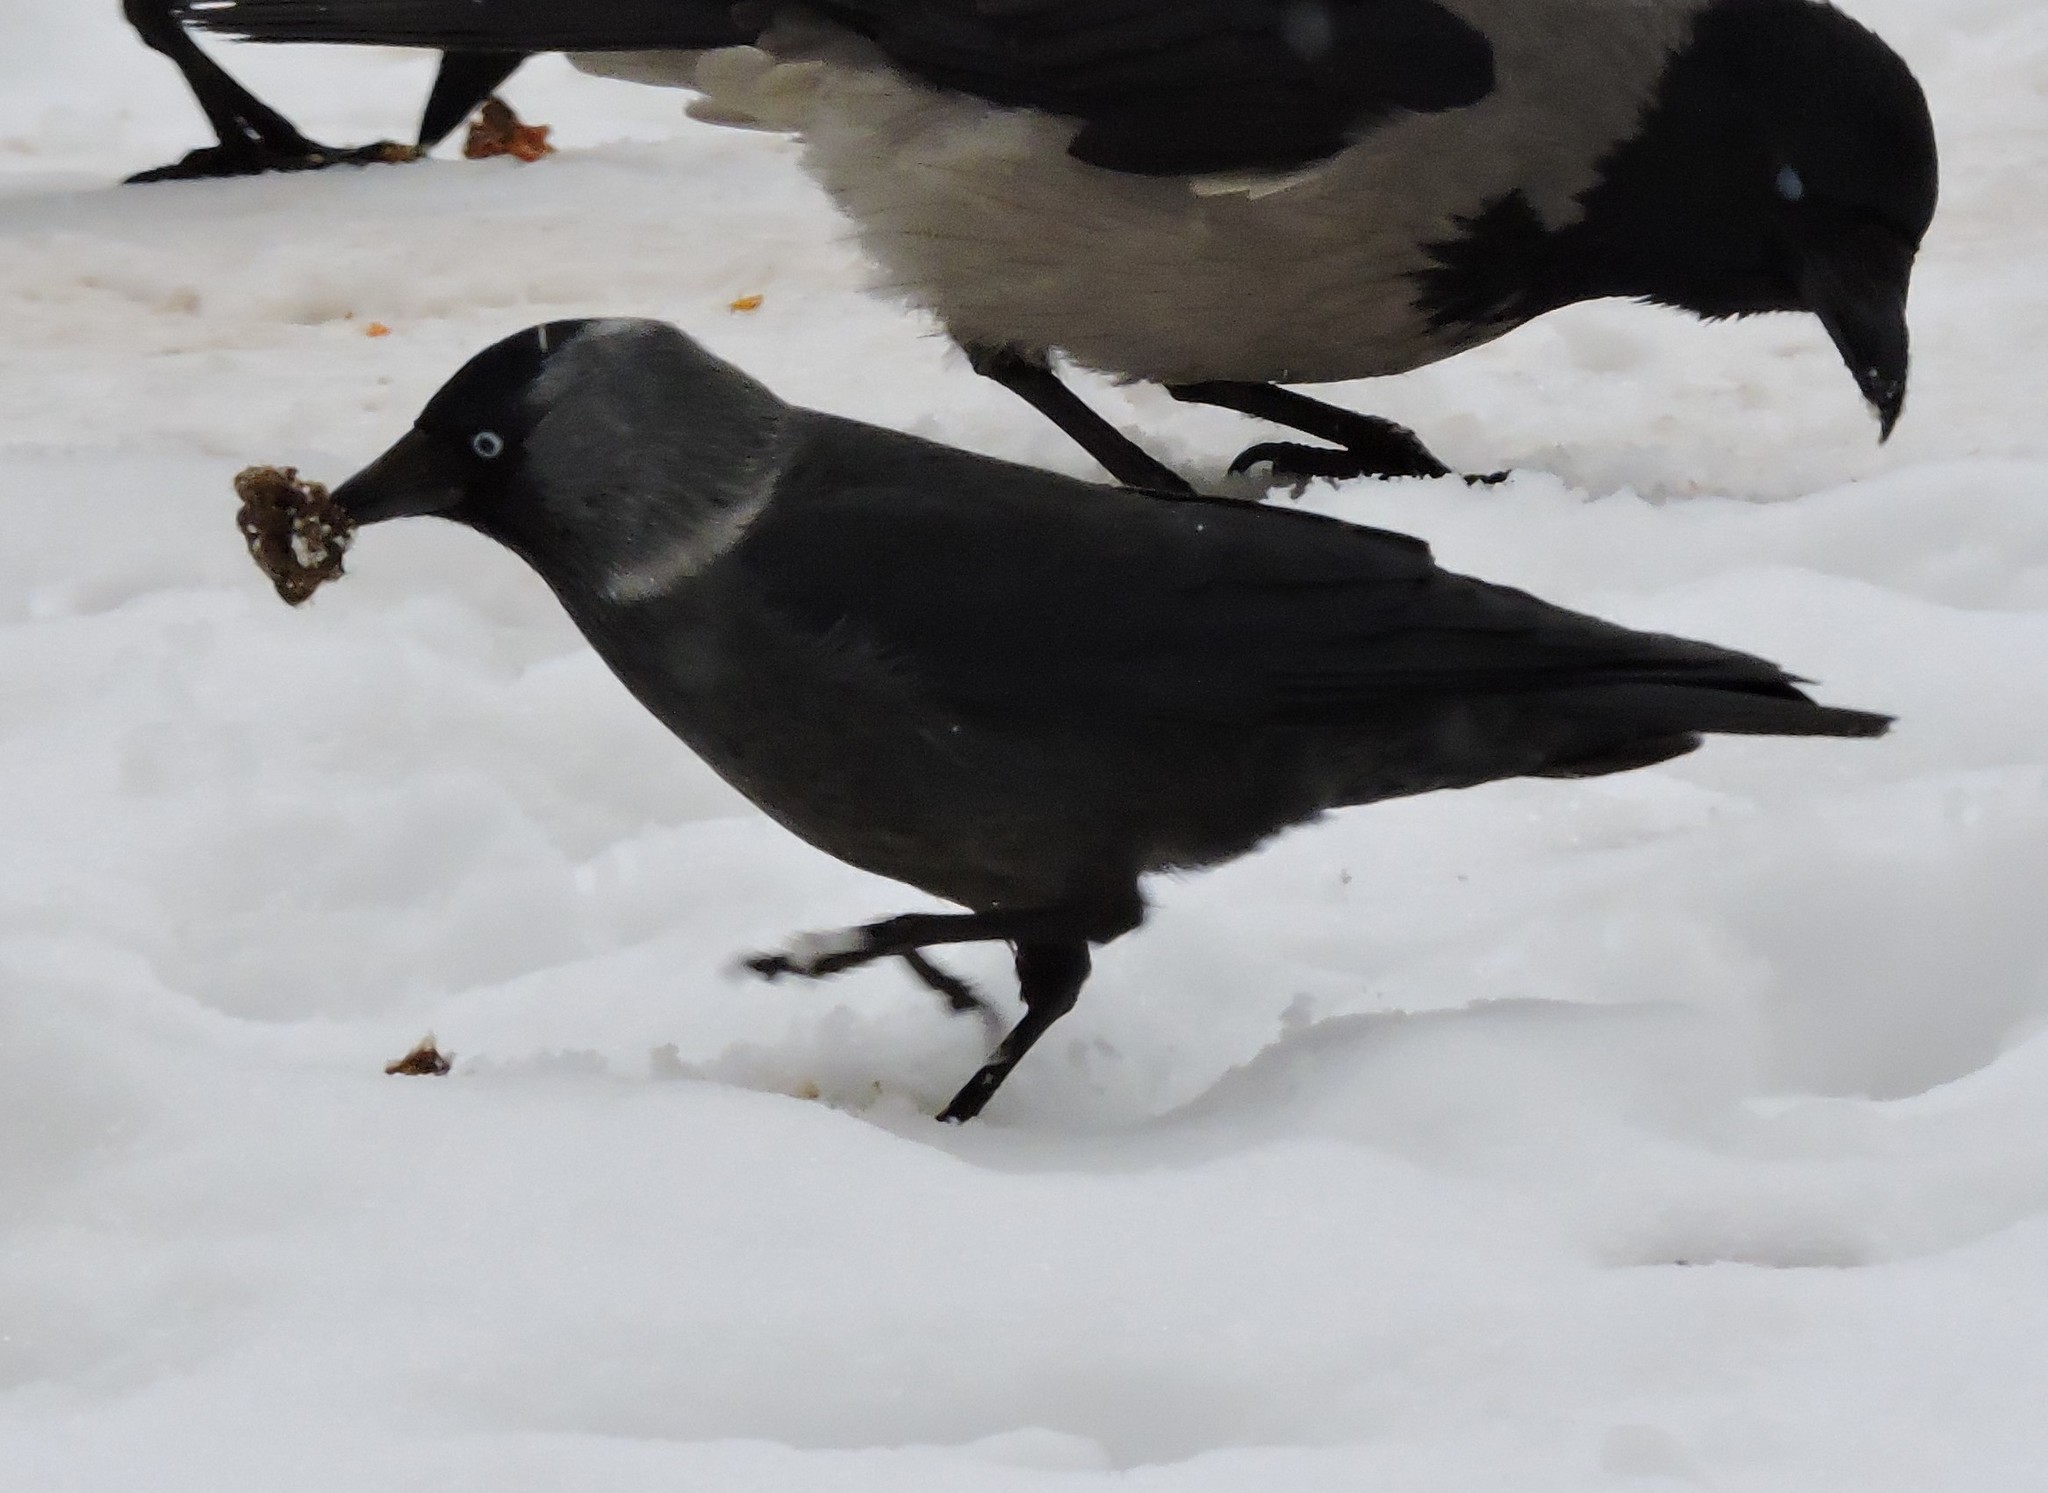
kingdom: Animalia
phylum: Chordata
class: Aves
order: Passeriformes
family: Corvidae
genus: Coloeus
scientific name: Coloeus monedula
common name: Western jackdaw
